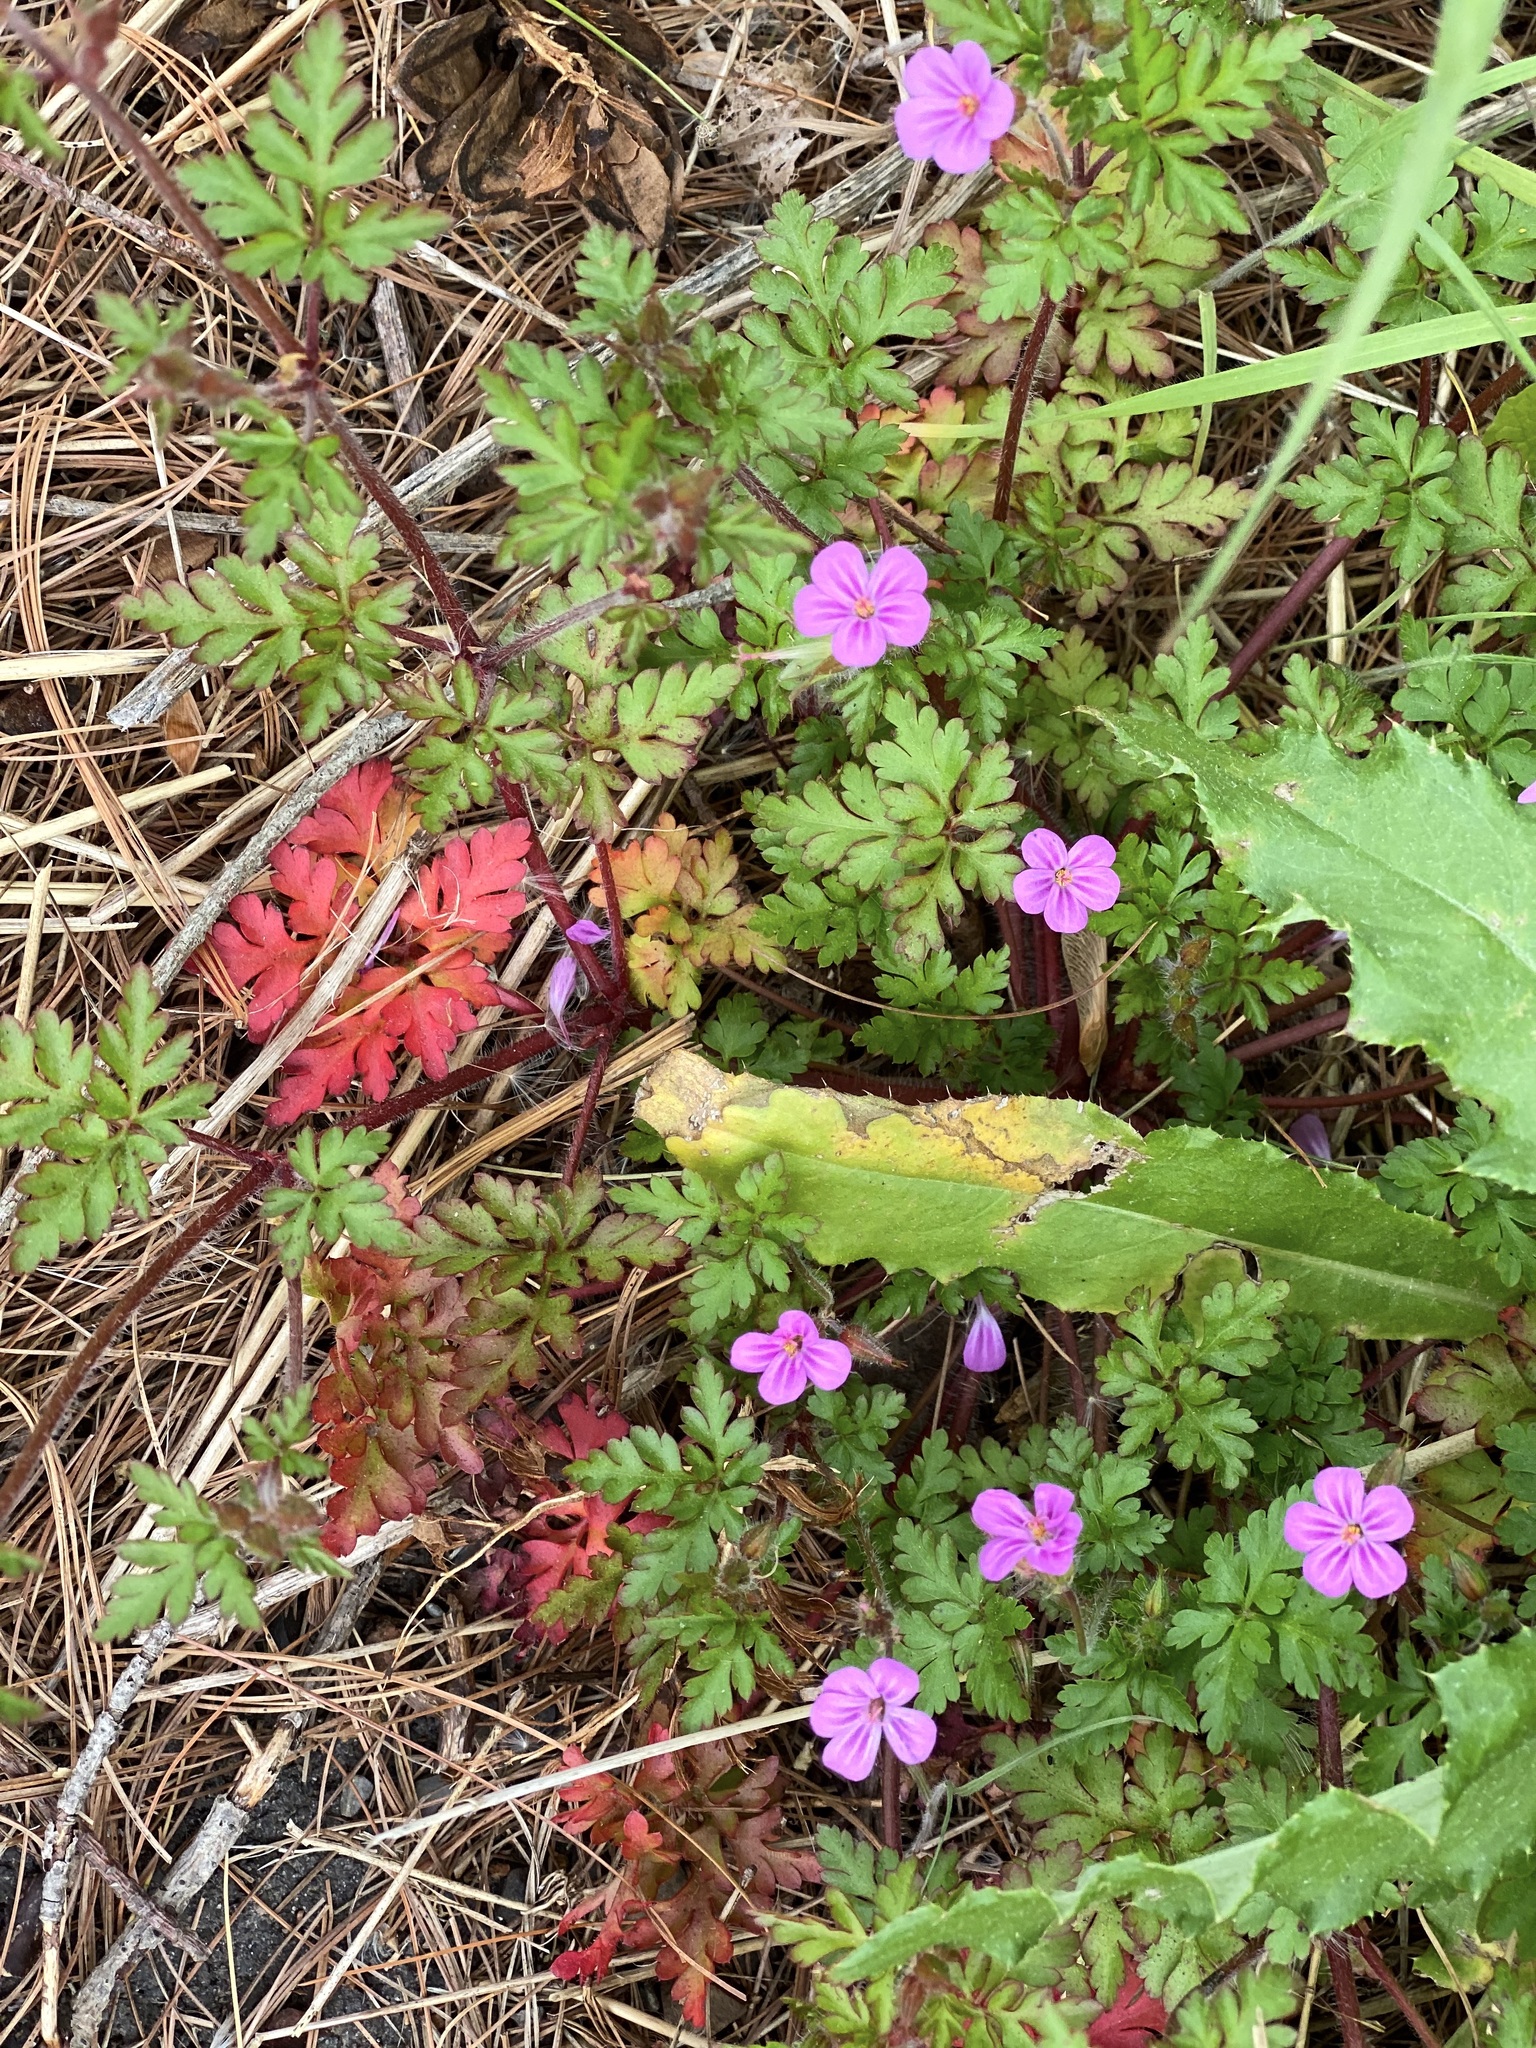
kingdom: Plantae
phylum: Tracheophyta
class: Magnoliopsida
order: Geraniales
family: Geraniaceae
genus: Geranium
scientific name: Geranium robertianum
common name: Herb-robert
